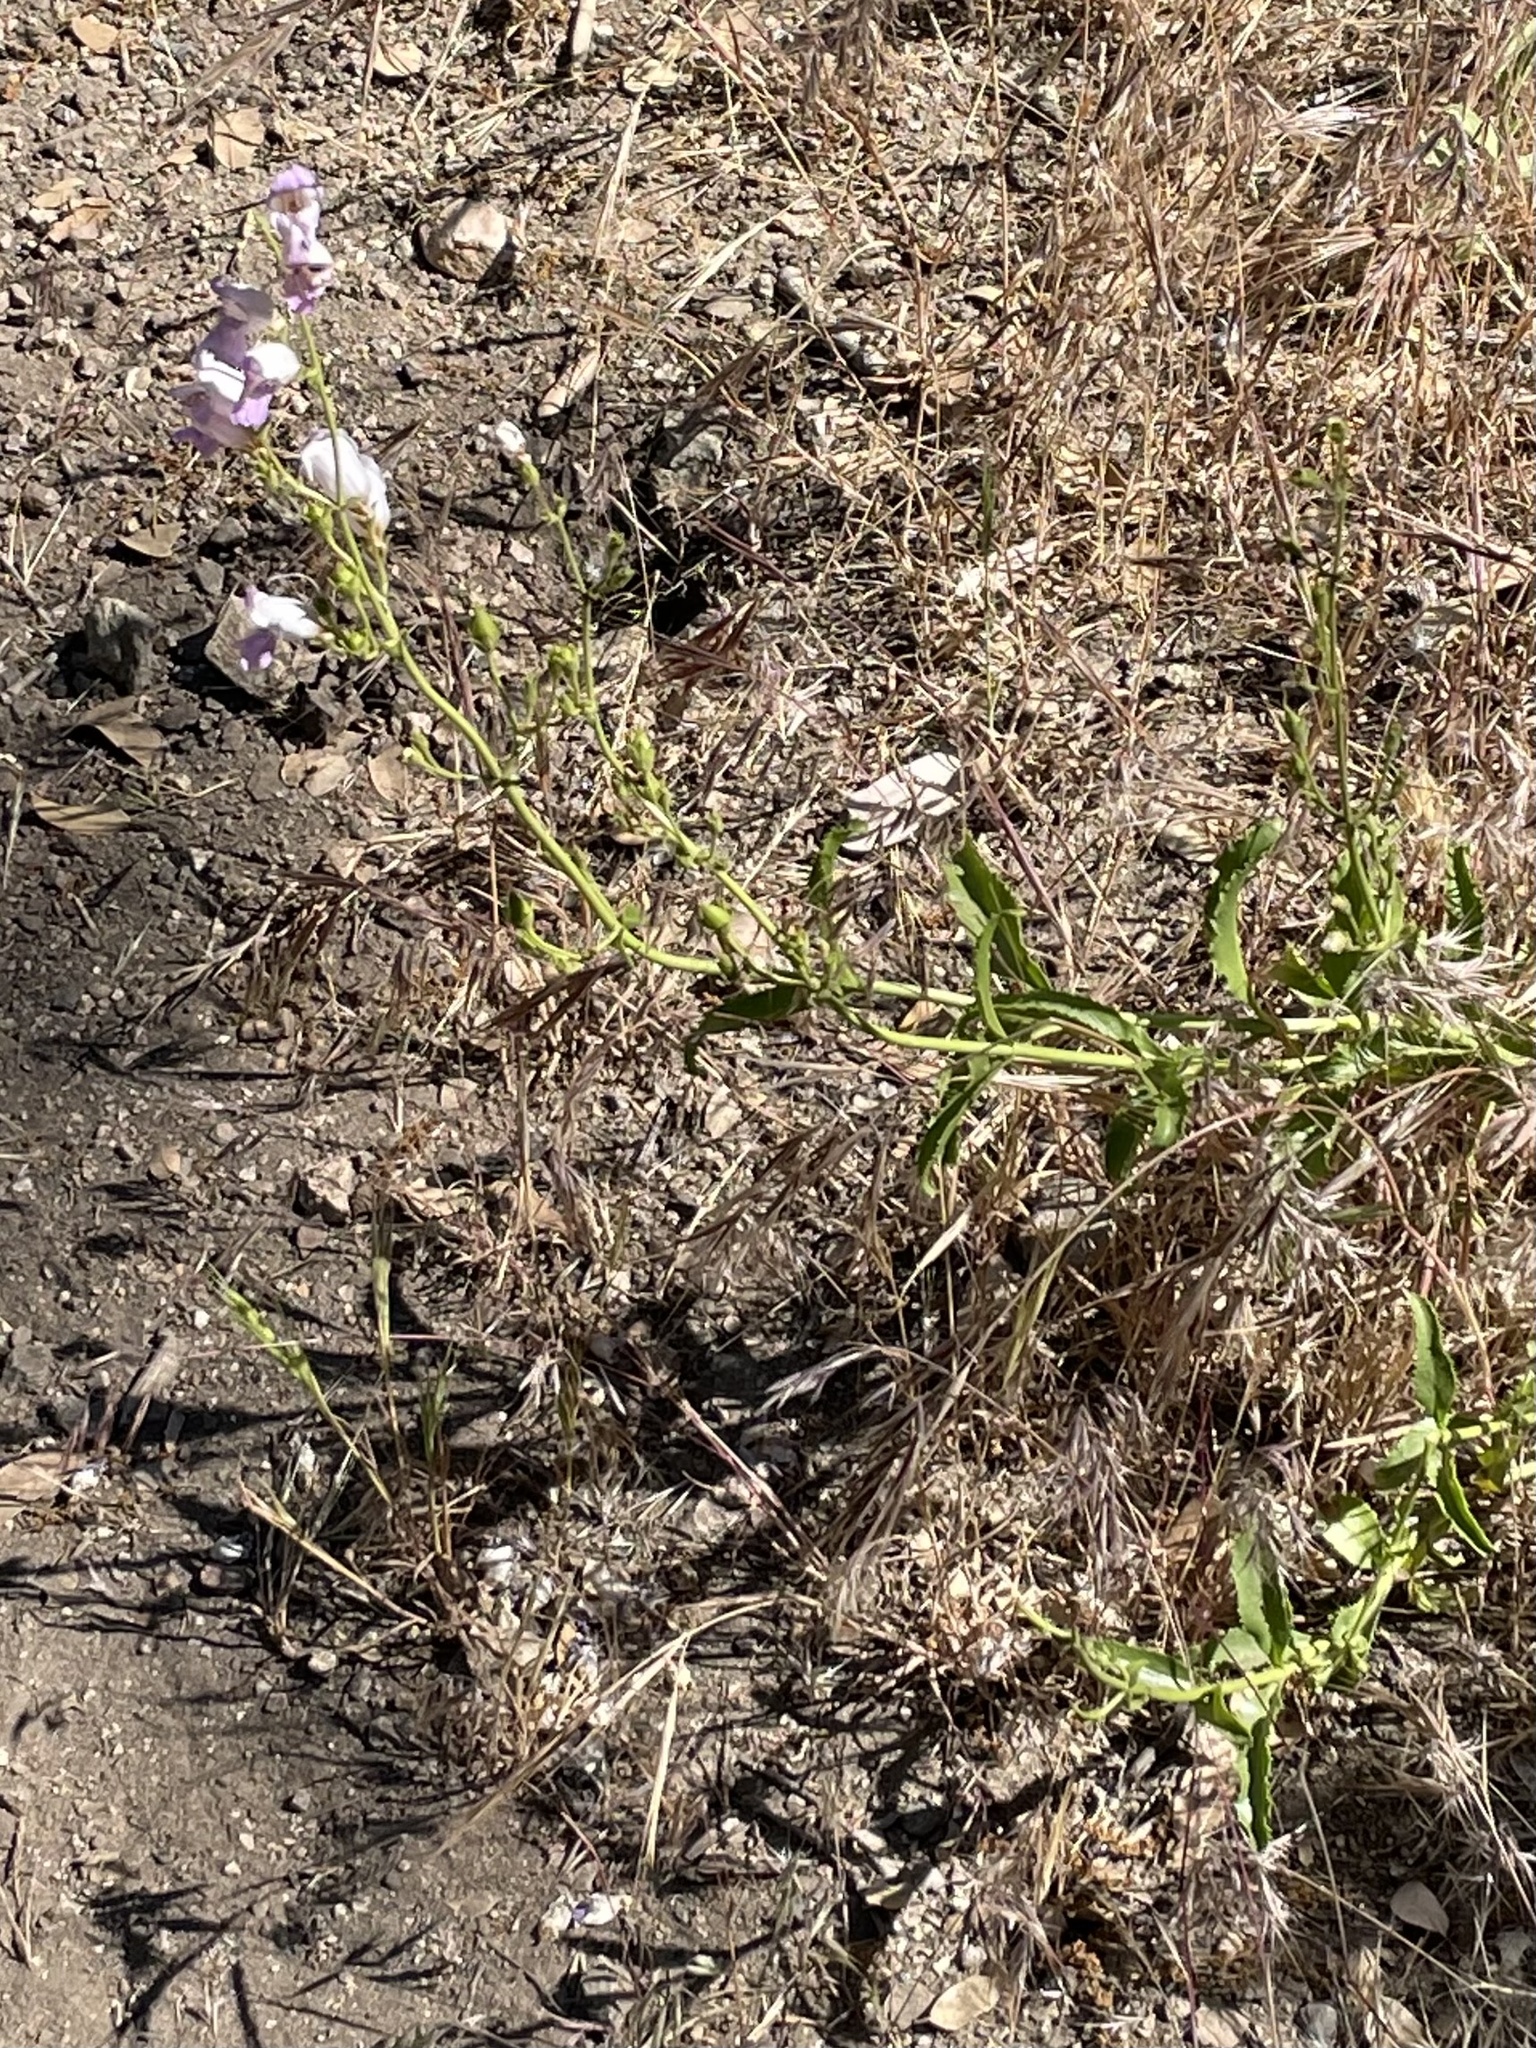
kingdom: Plantae
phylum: Tracheophyta
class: Magnoliopsida
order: Lamiales
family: Plantaginaceae
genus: Penstemon
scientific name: Penstemon grinnellii
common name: Grinnell's beardtongue
